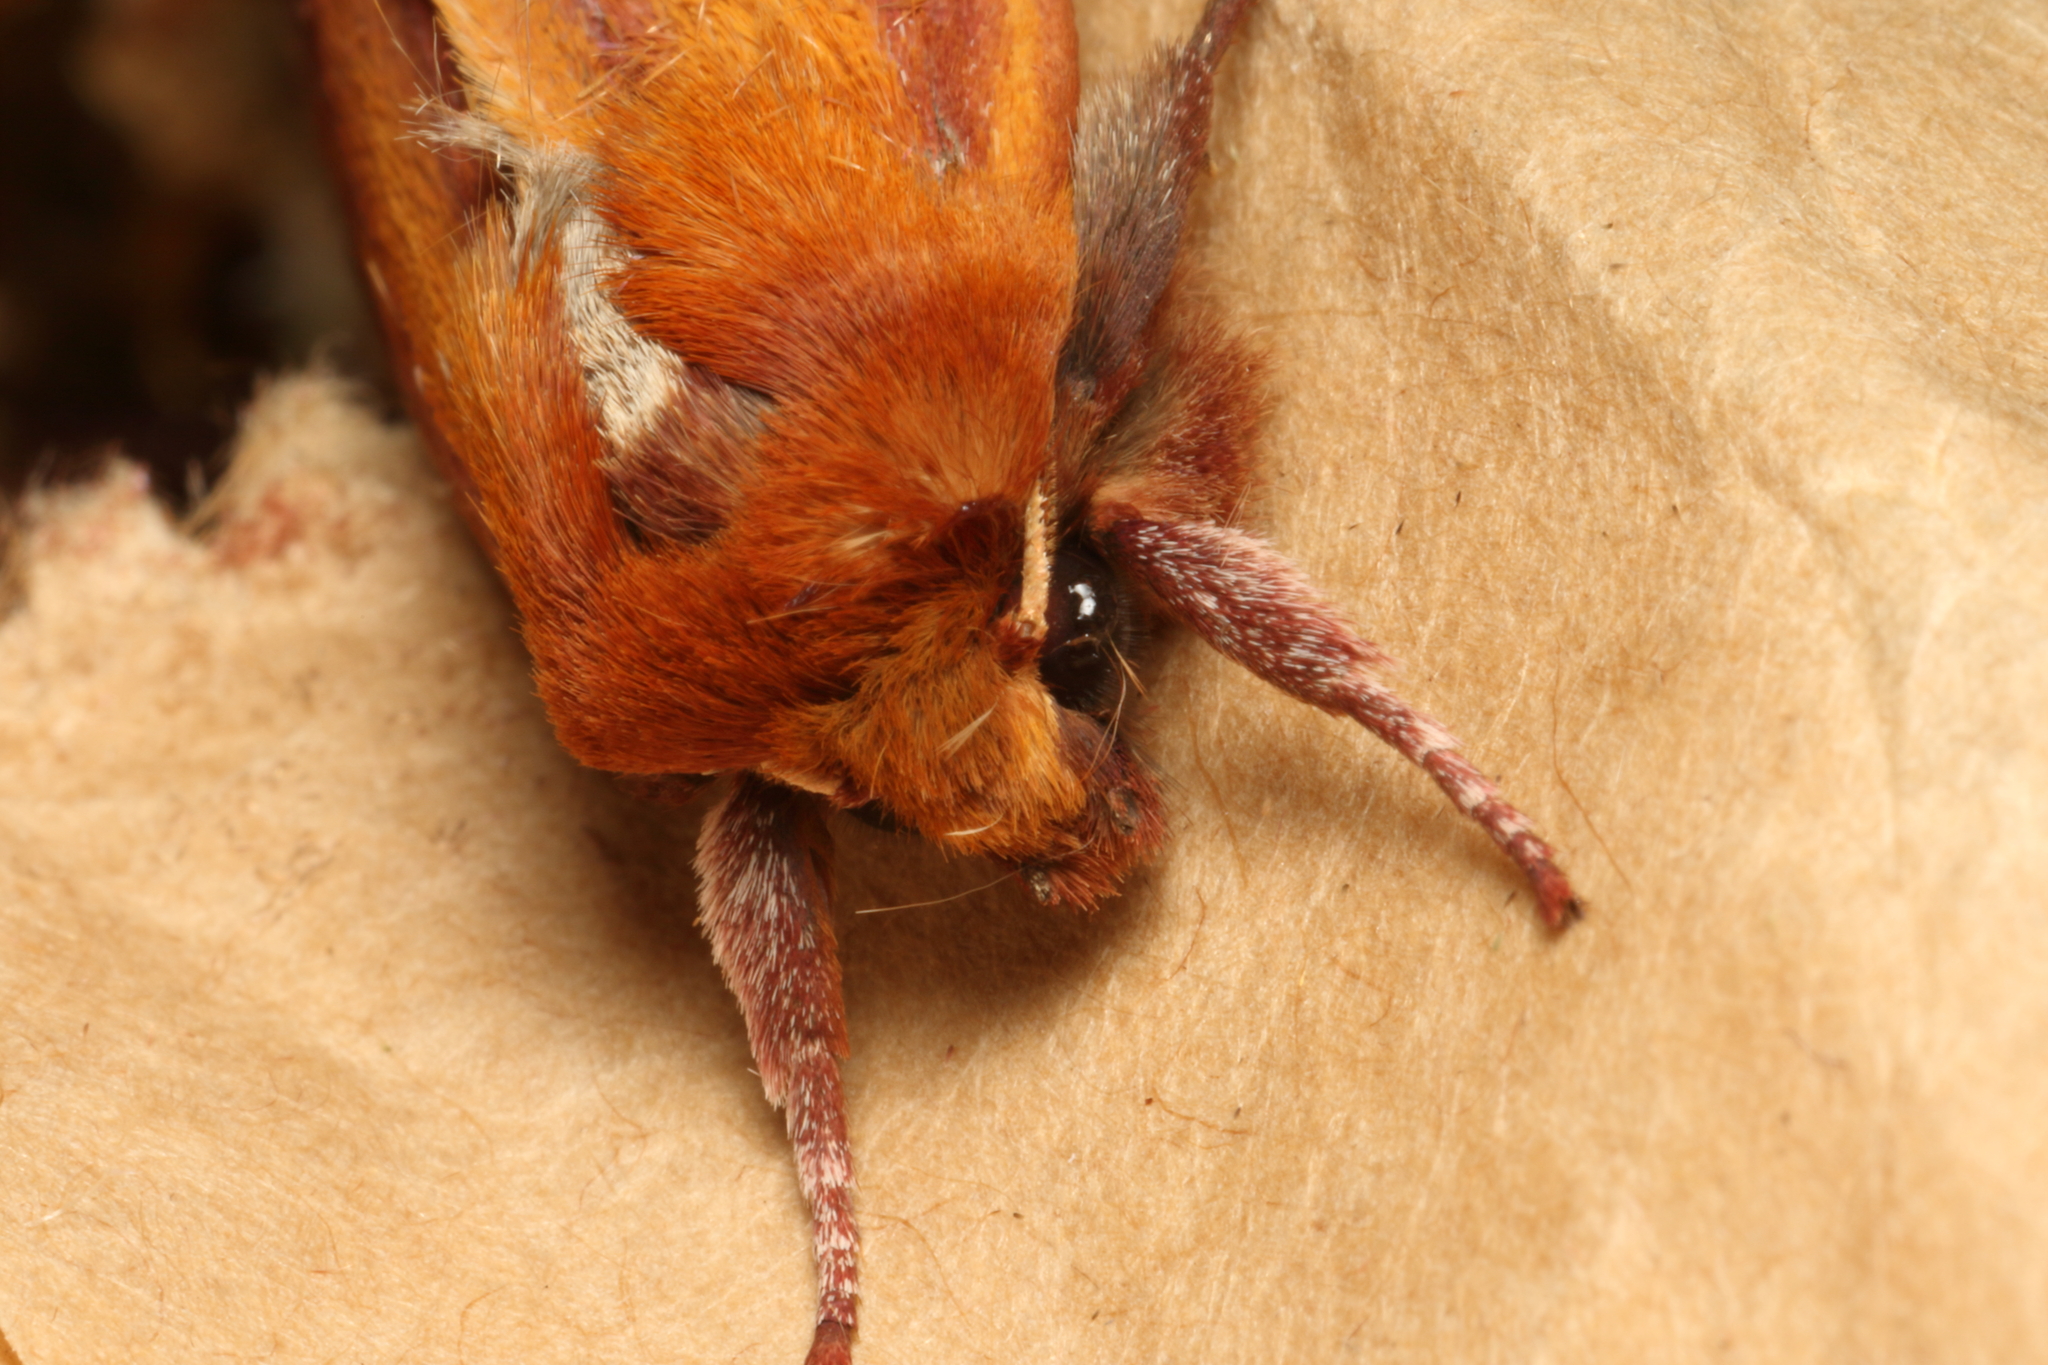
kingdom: Animalia
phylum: Arthropoda
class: Insecta
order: Lepidoptera
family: Noctuidae
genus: Ichneutica
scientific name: Ichneutica
